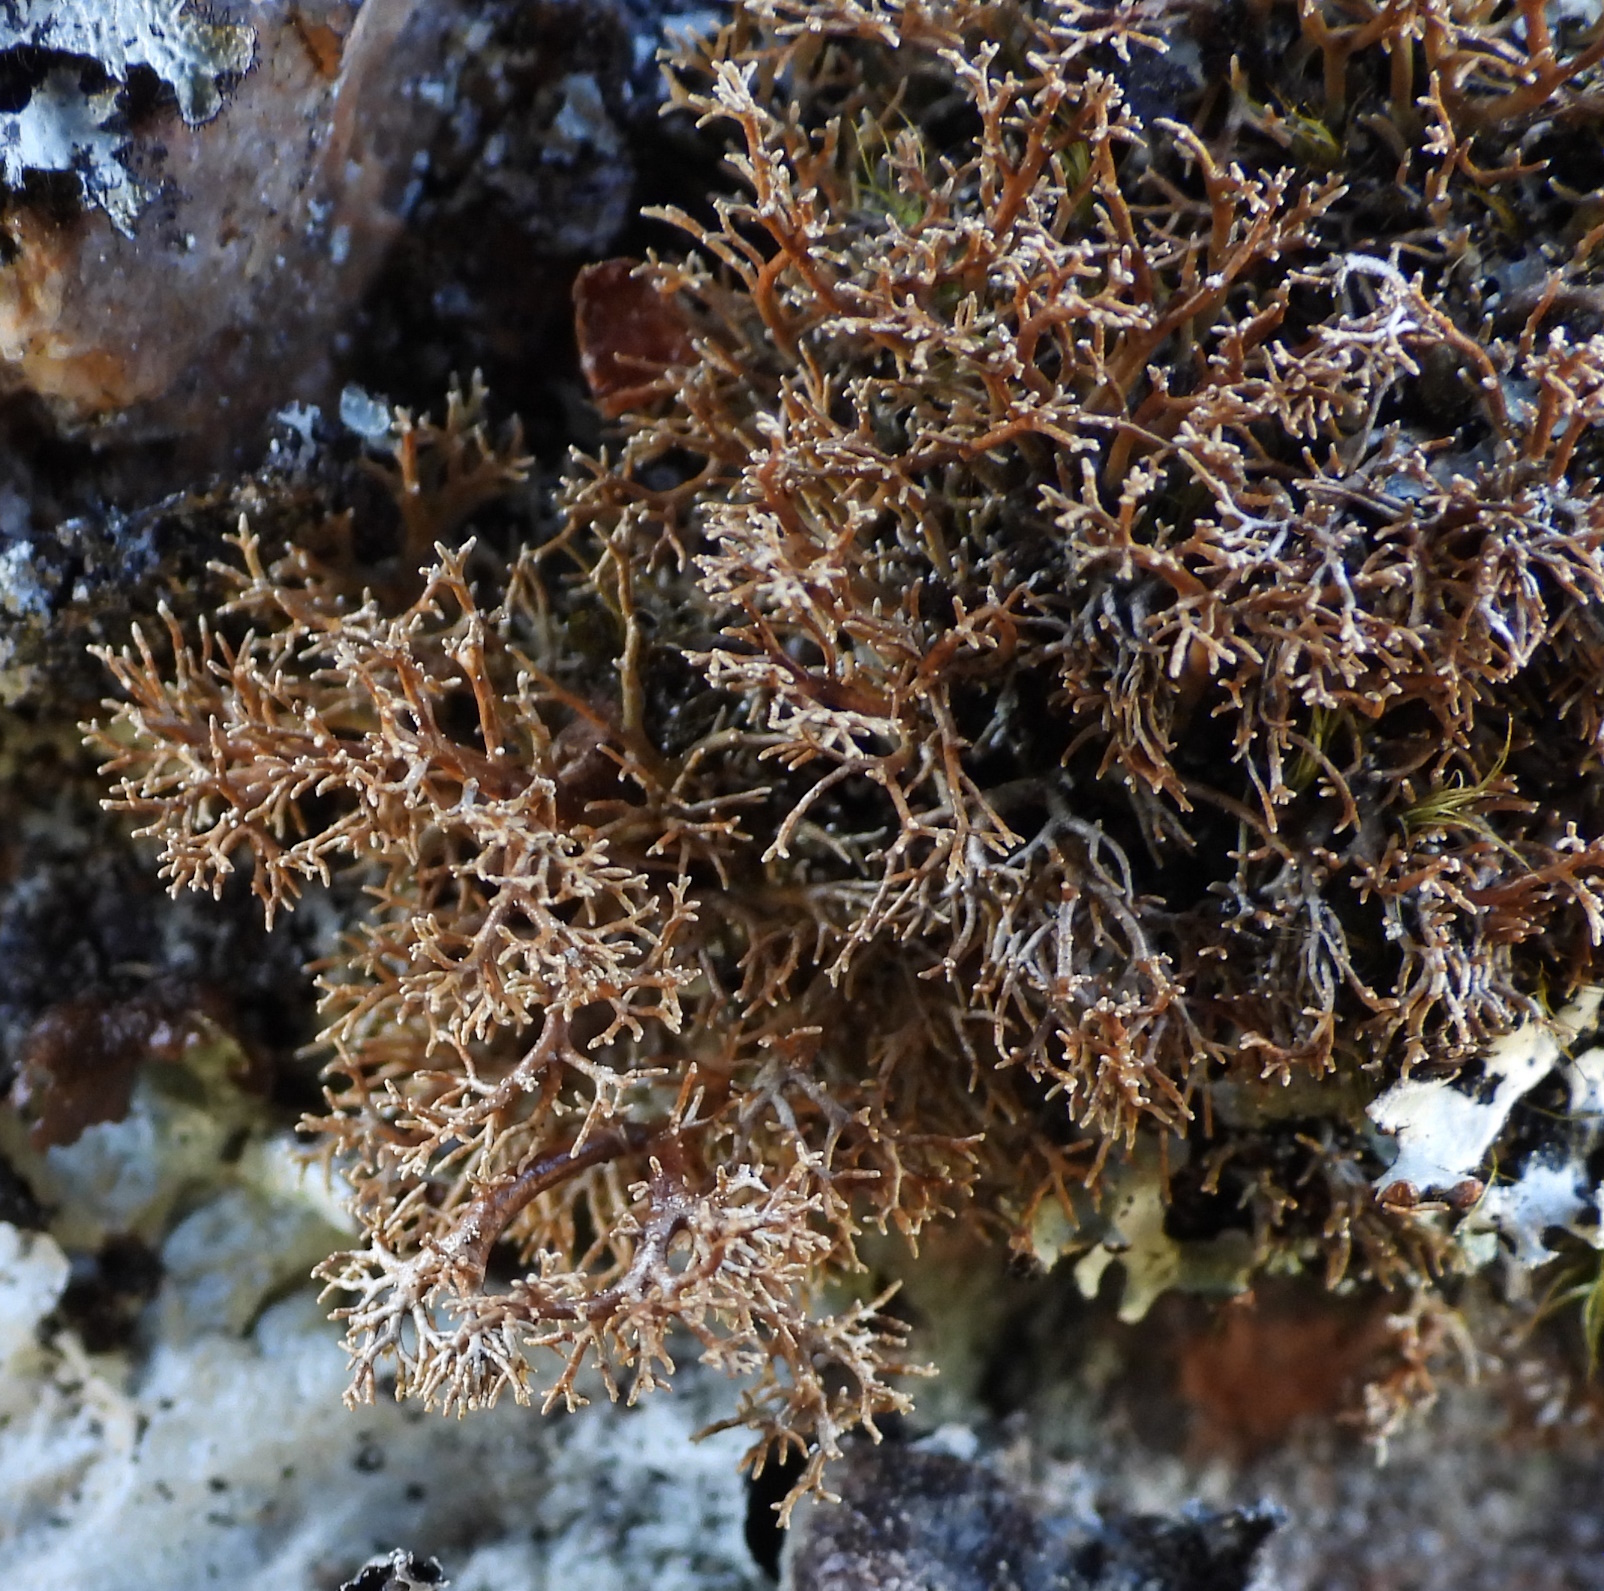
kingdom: Fungi
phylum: Ascomycota
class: Lecanoromycetes
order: Lecanorales
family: Sphaerophoraceae
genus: Sphaerophorus
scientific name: Sphaerophorus fragilis
